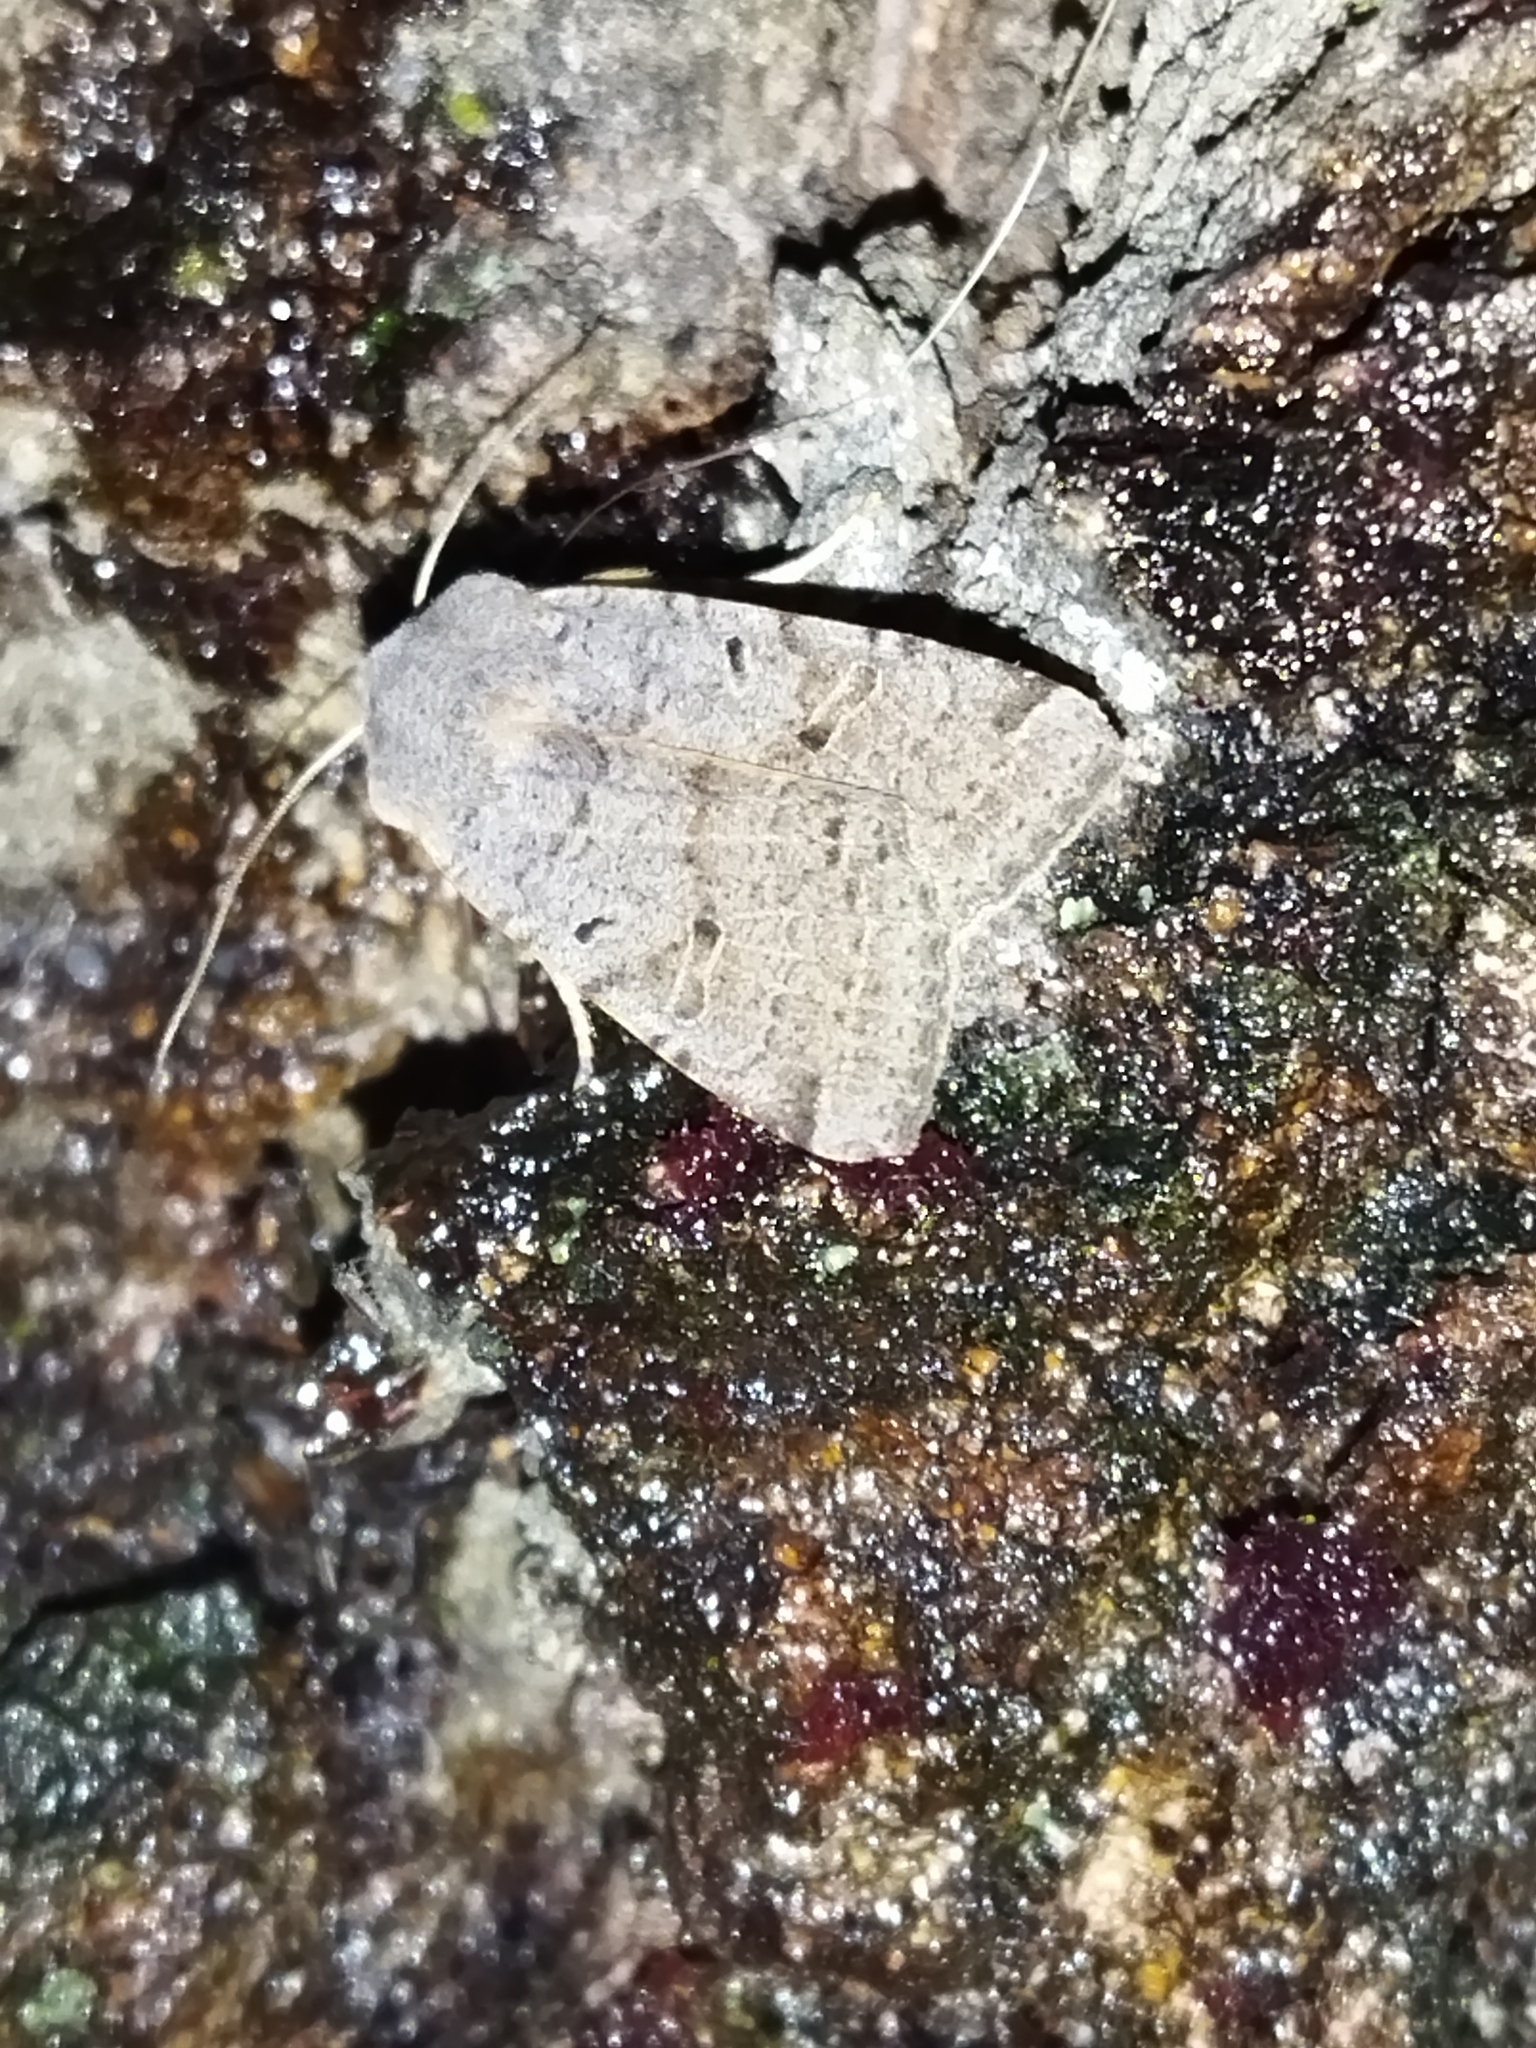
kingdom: Animalia
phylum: Arthropoda
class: Insecta
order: Lepidoptera
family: Noctuidae
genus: Agrochola
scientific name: Agrochola lychnidis
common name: Beaded chestnut
